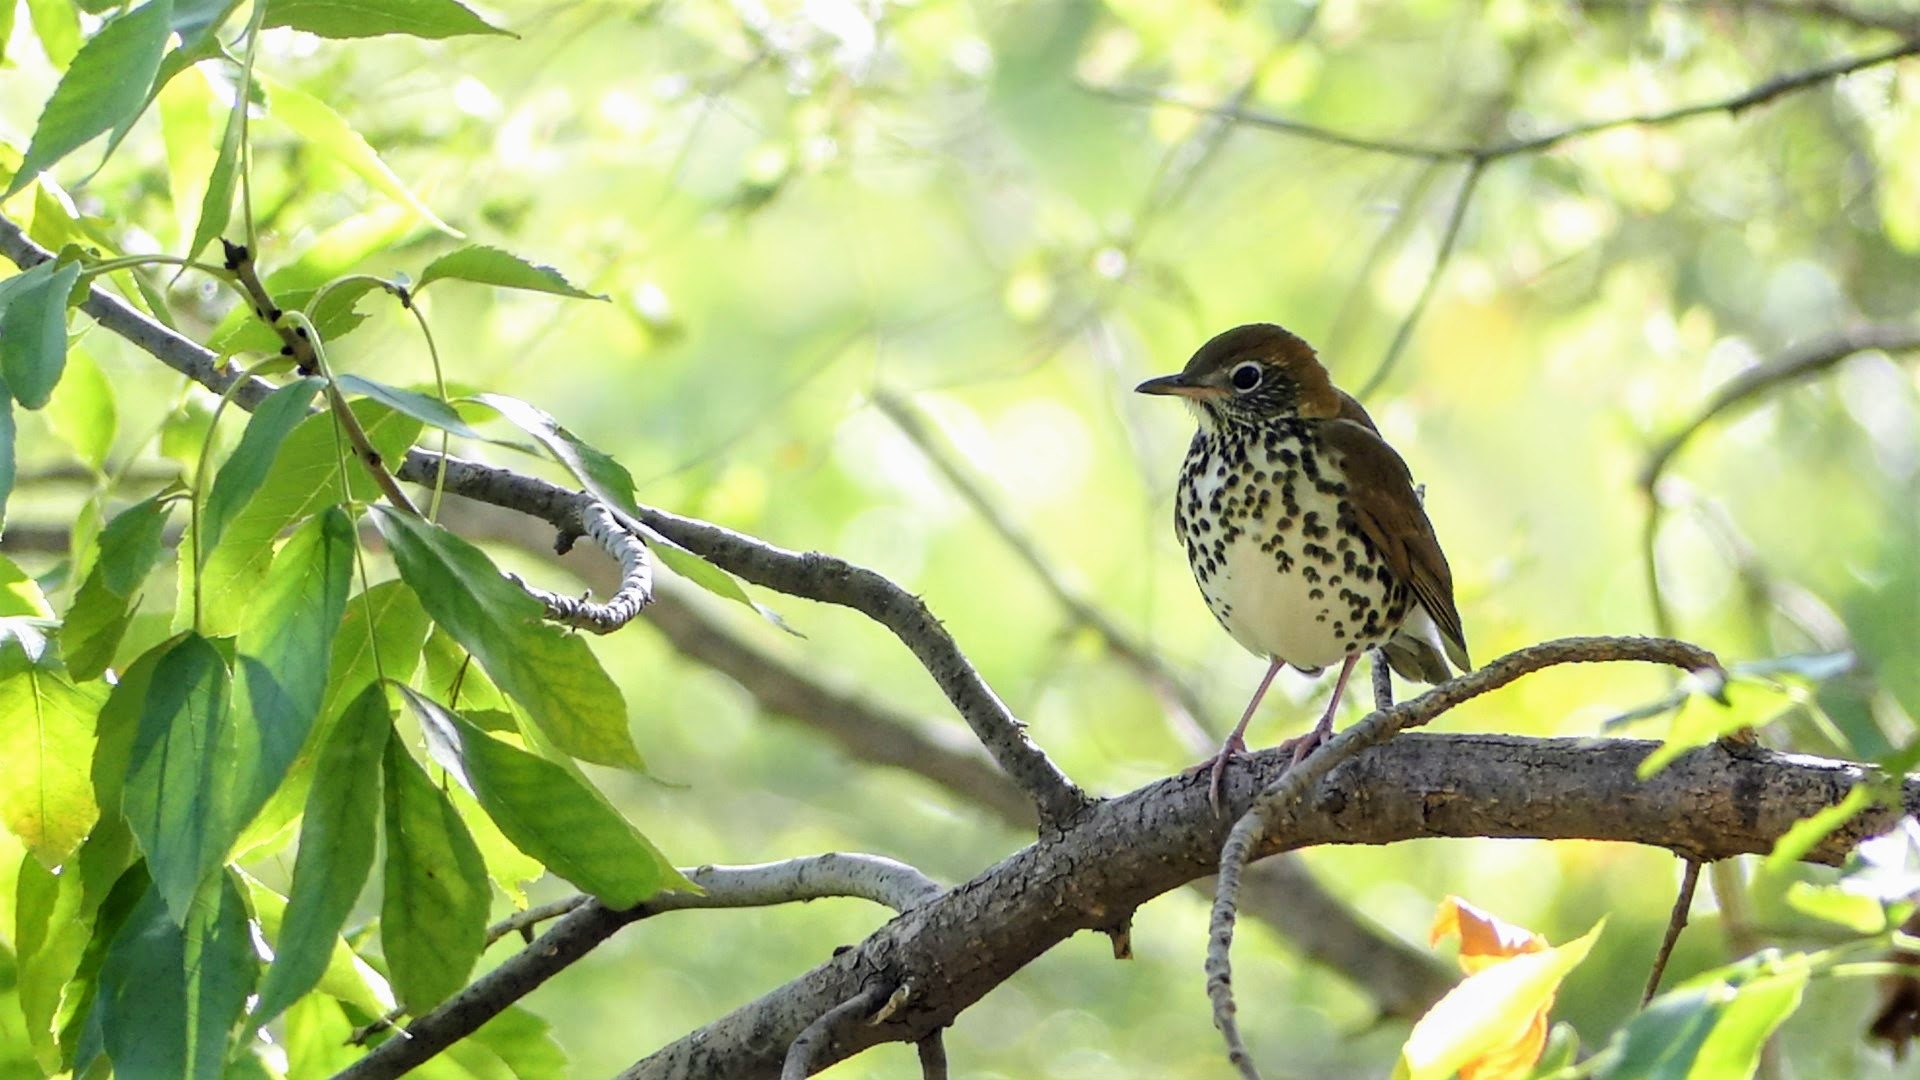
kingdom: Animalia
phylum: Chordata
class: Aves
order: Passeriformes
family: Turdidae
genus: Hylocichla
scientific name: Hylocichla mustelina
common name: Wood thrush
